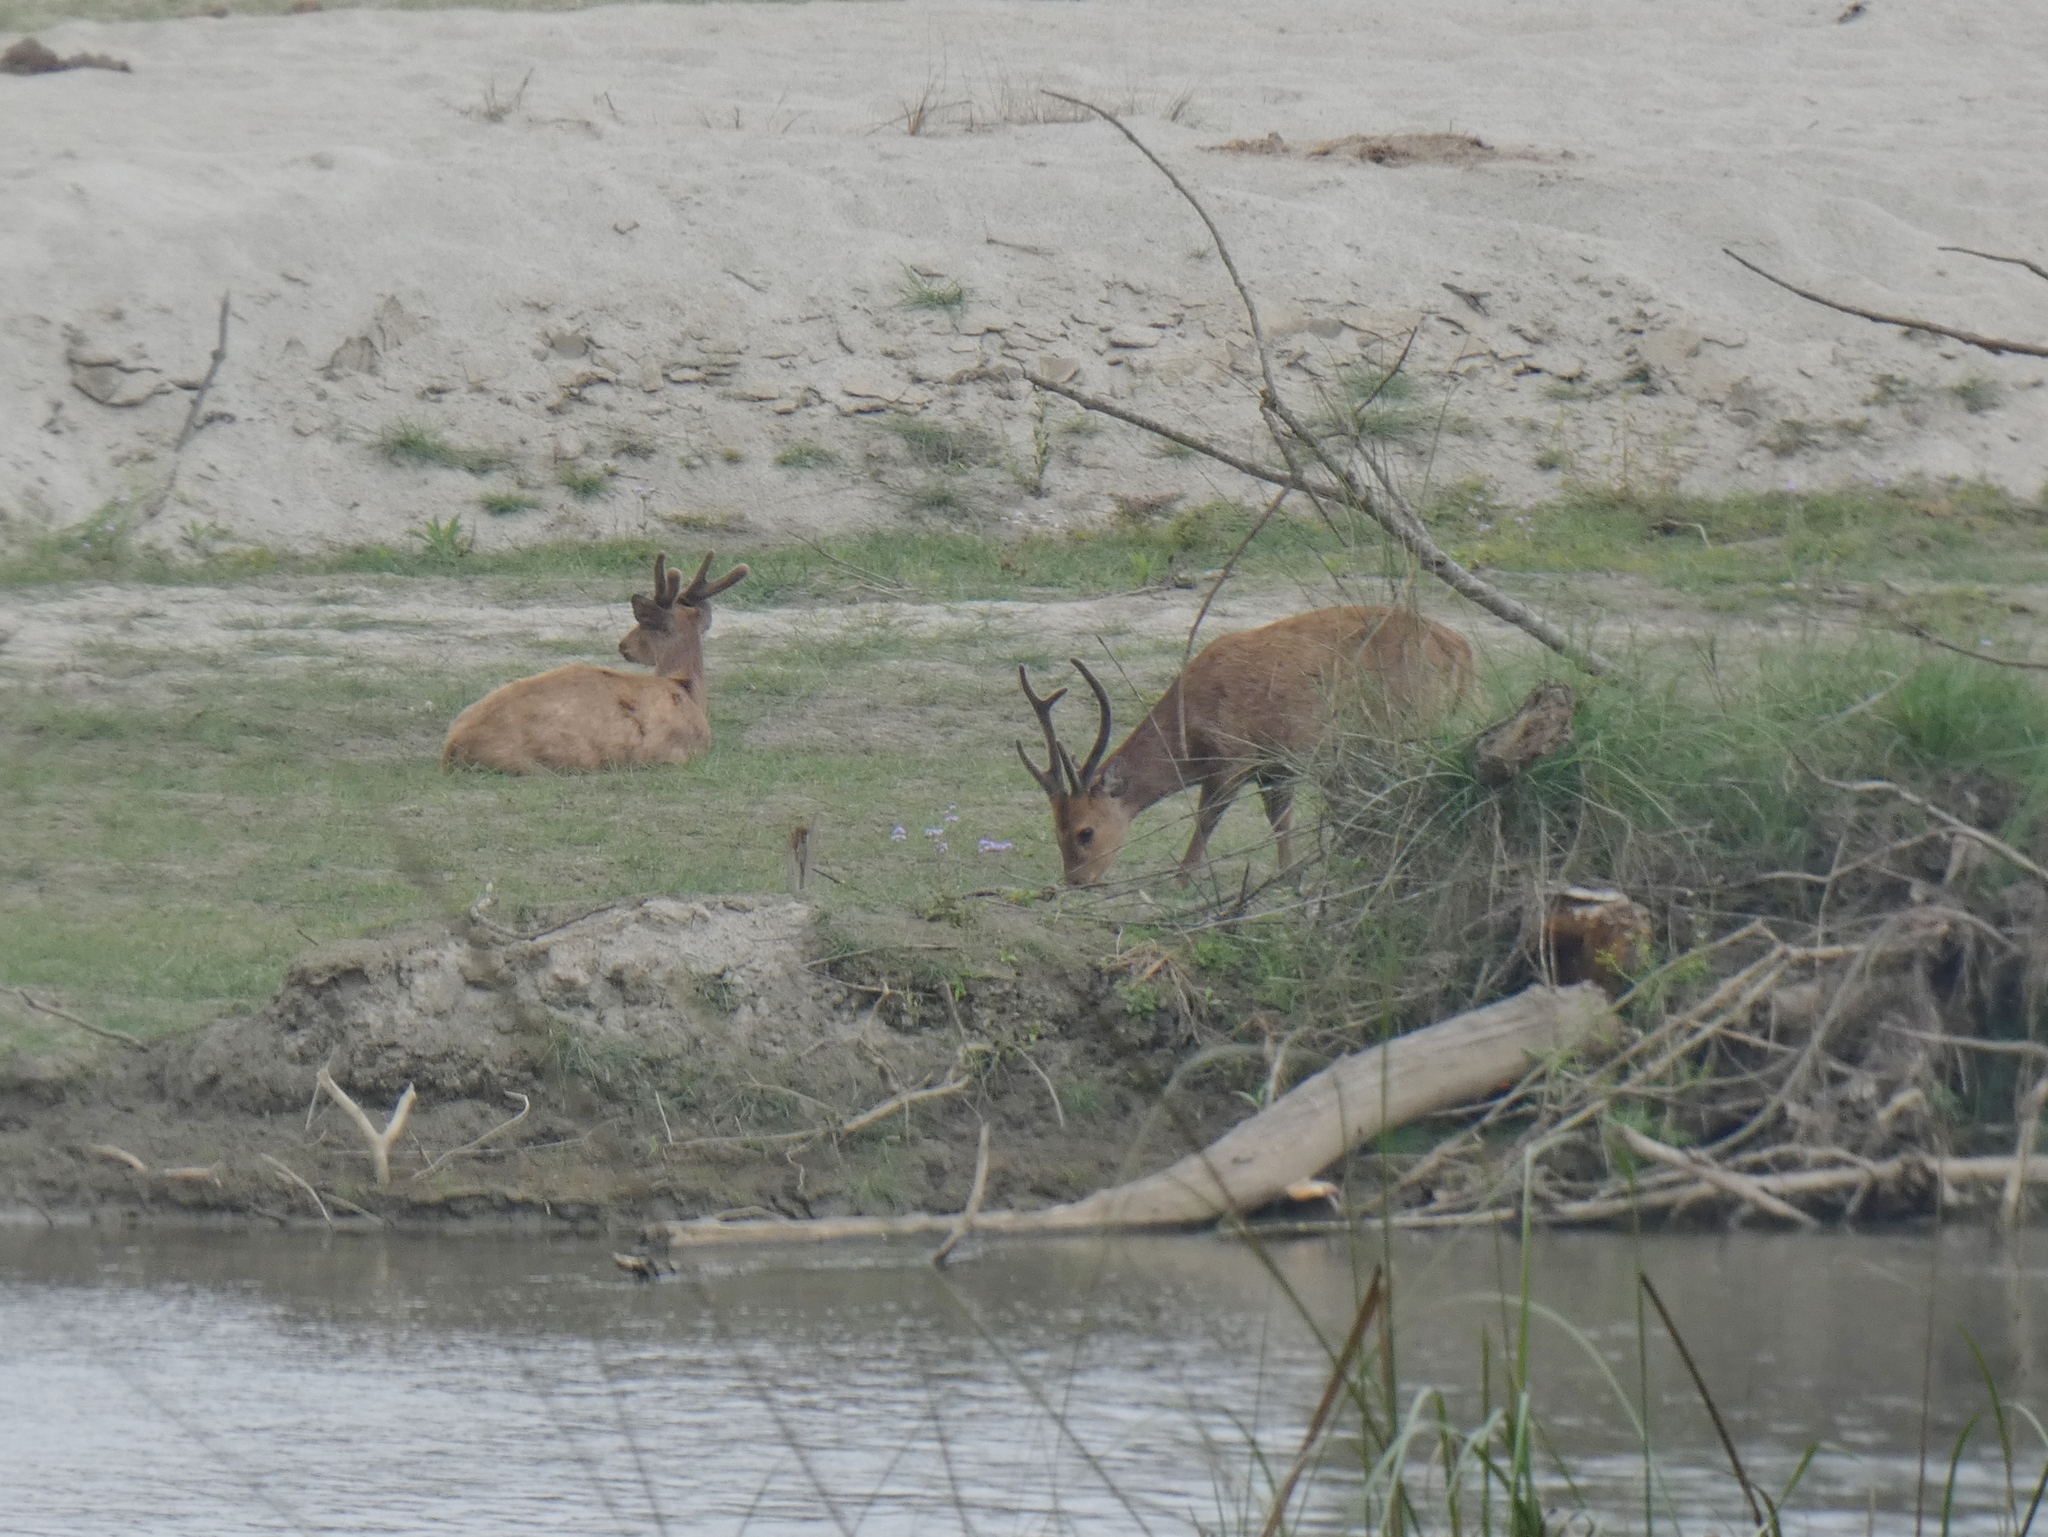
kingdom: Animalia
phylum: Chordata
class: Mammalia
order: Artiodactyla
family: Cervidae
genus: Axis
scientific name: Axis porcinus
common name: Hog deer
